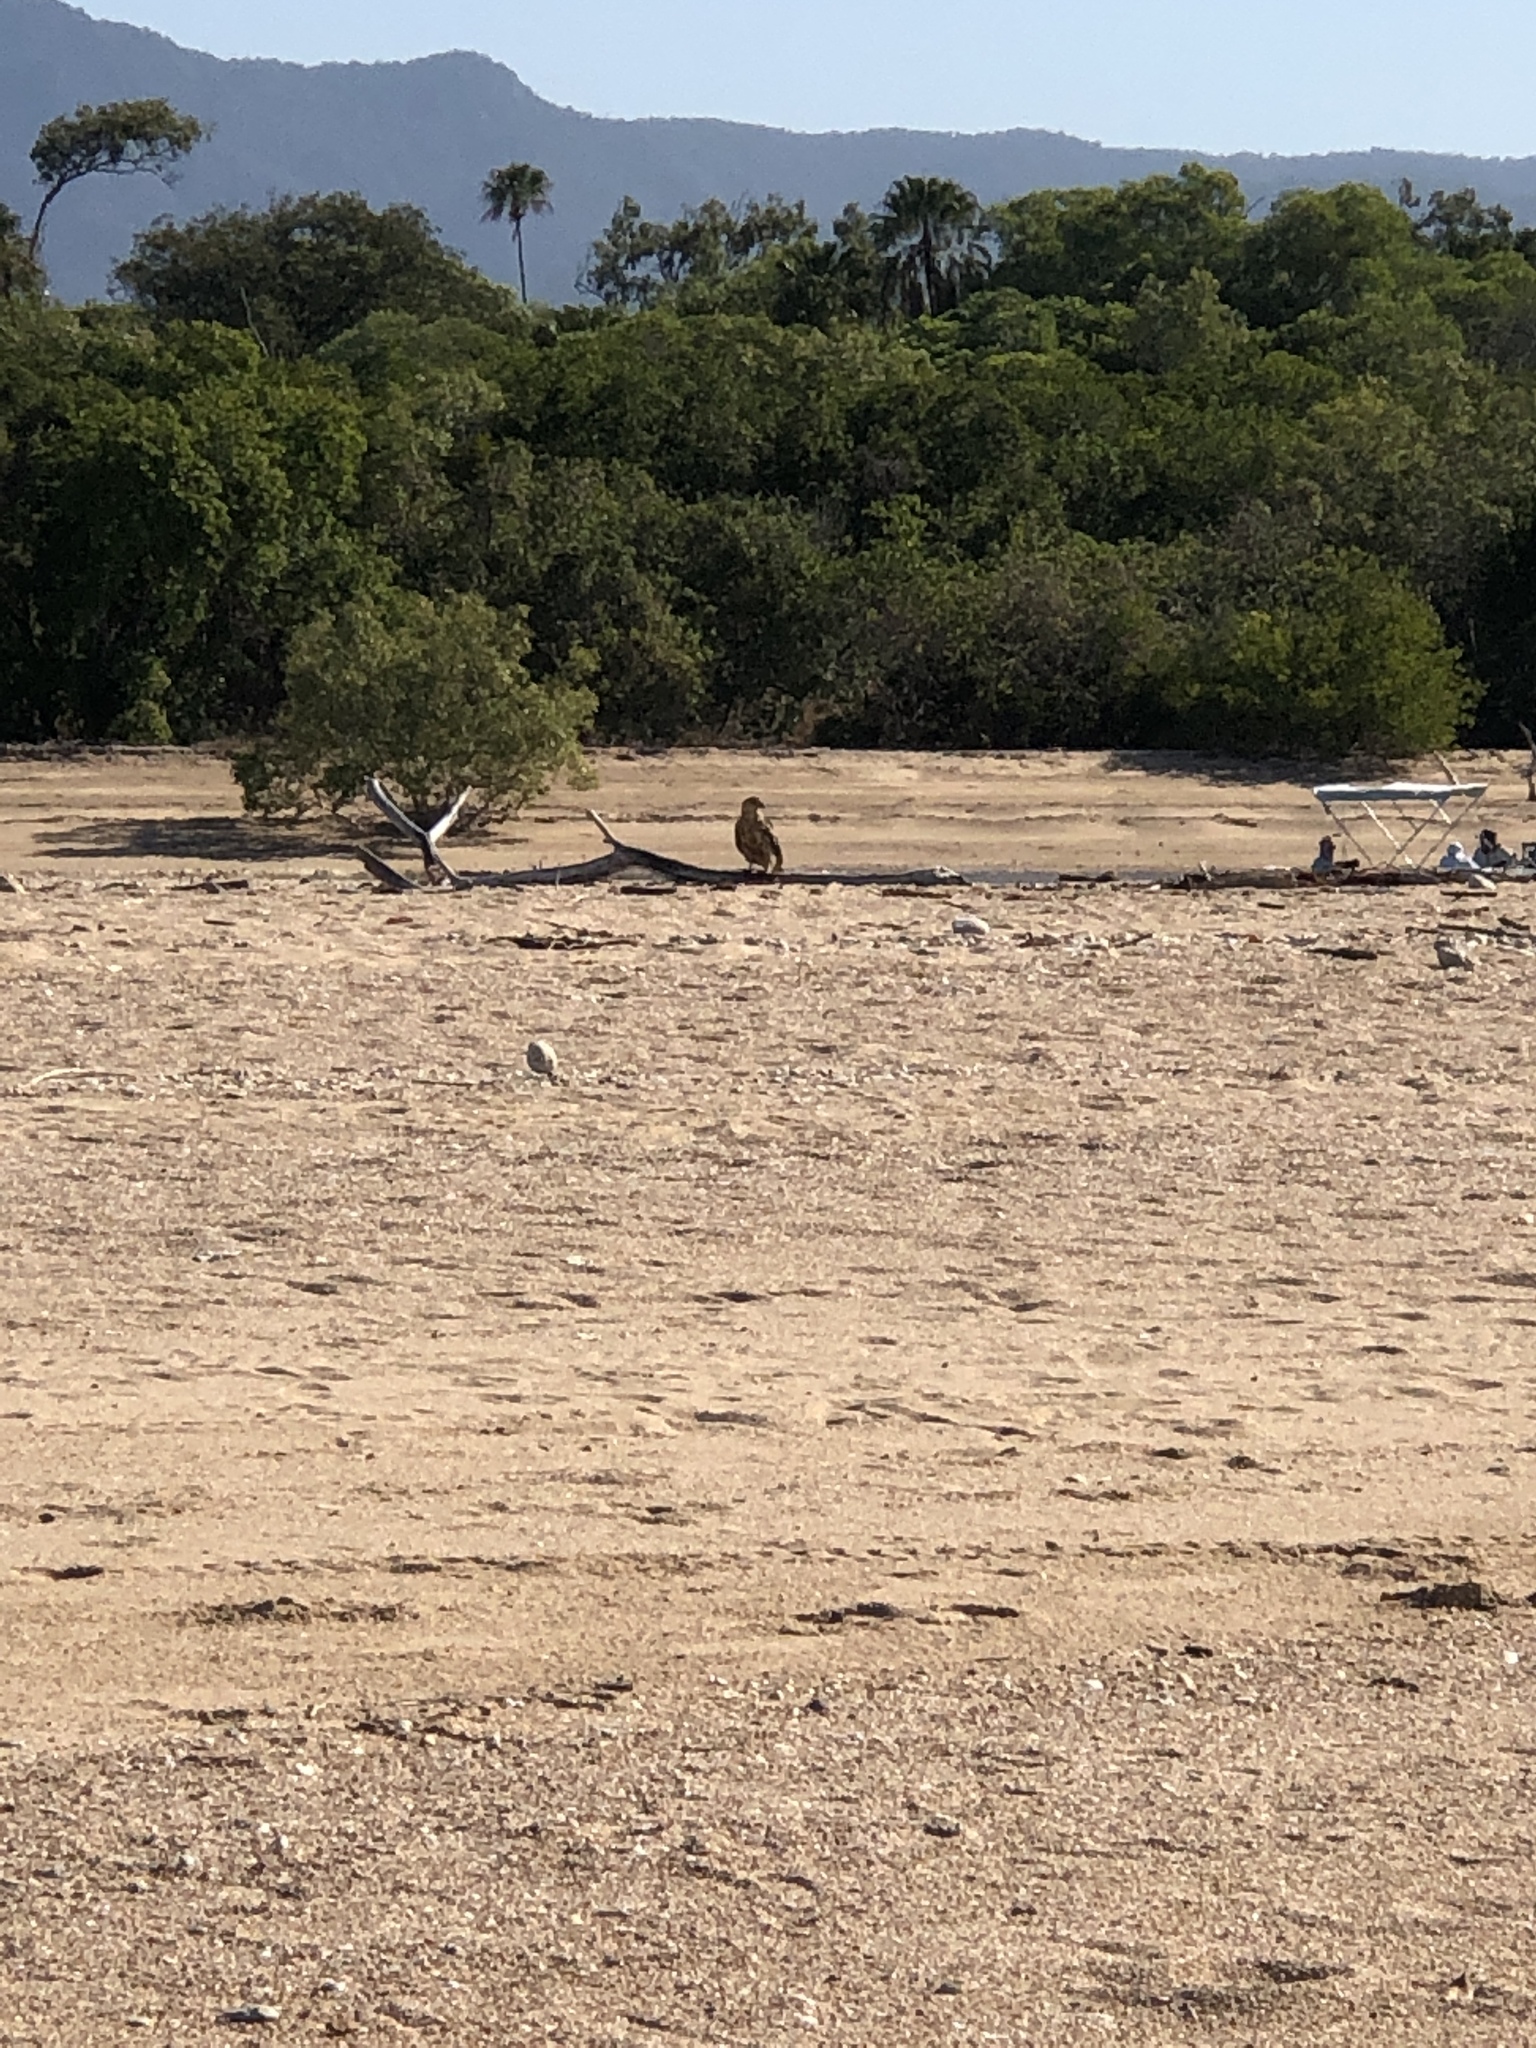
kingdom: Animalia
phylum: Chordata
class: Aves
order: Accipitriformes
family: Accipitridae
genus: Haliastur
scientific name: Haliastur sphenurus
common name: Whistling kite
